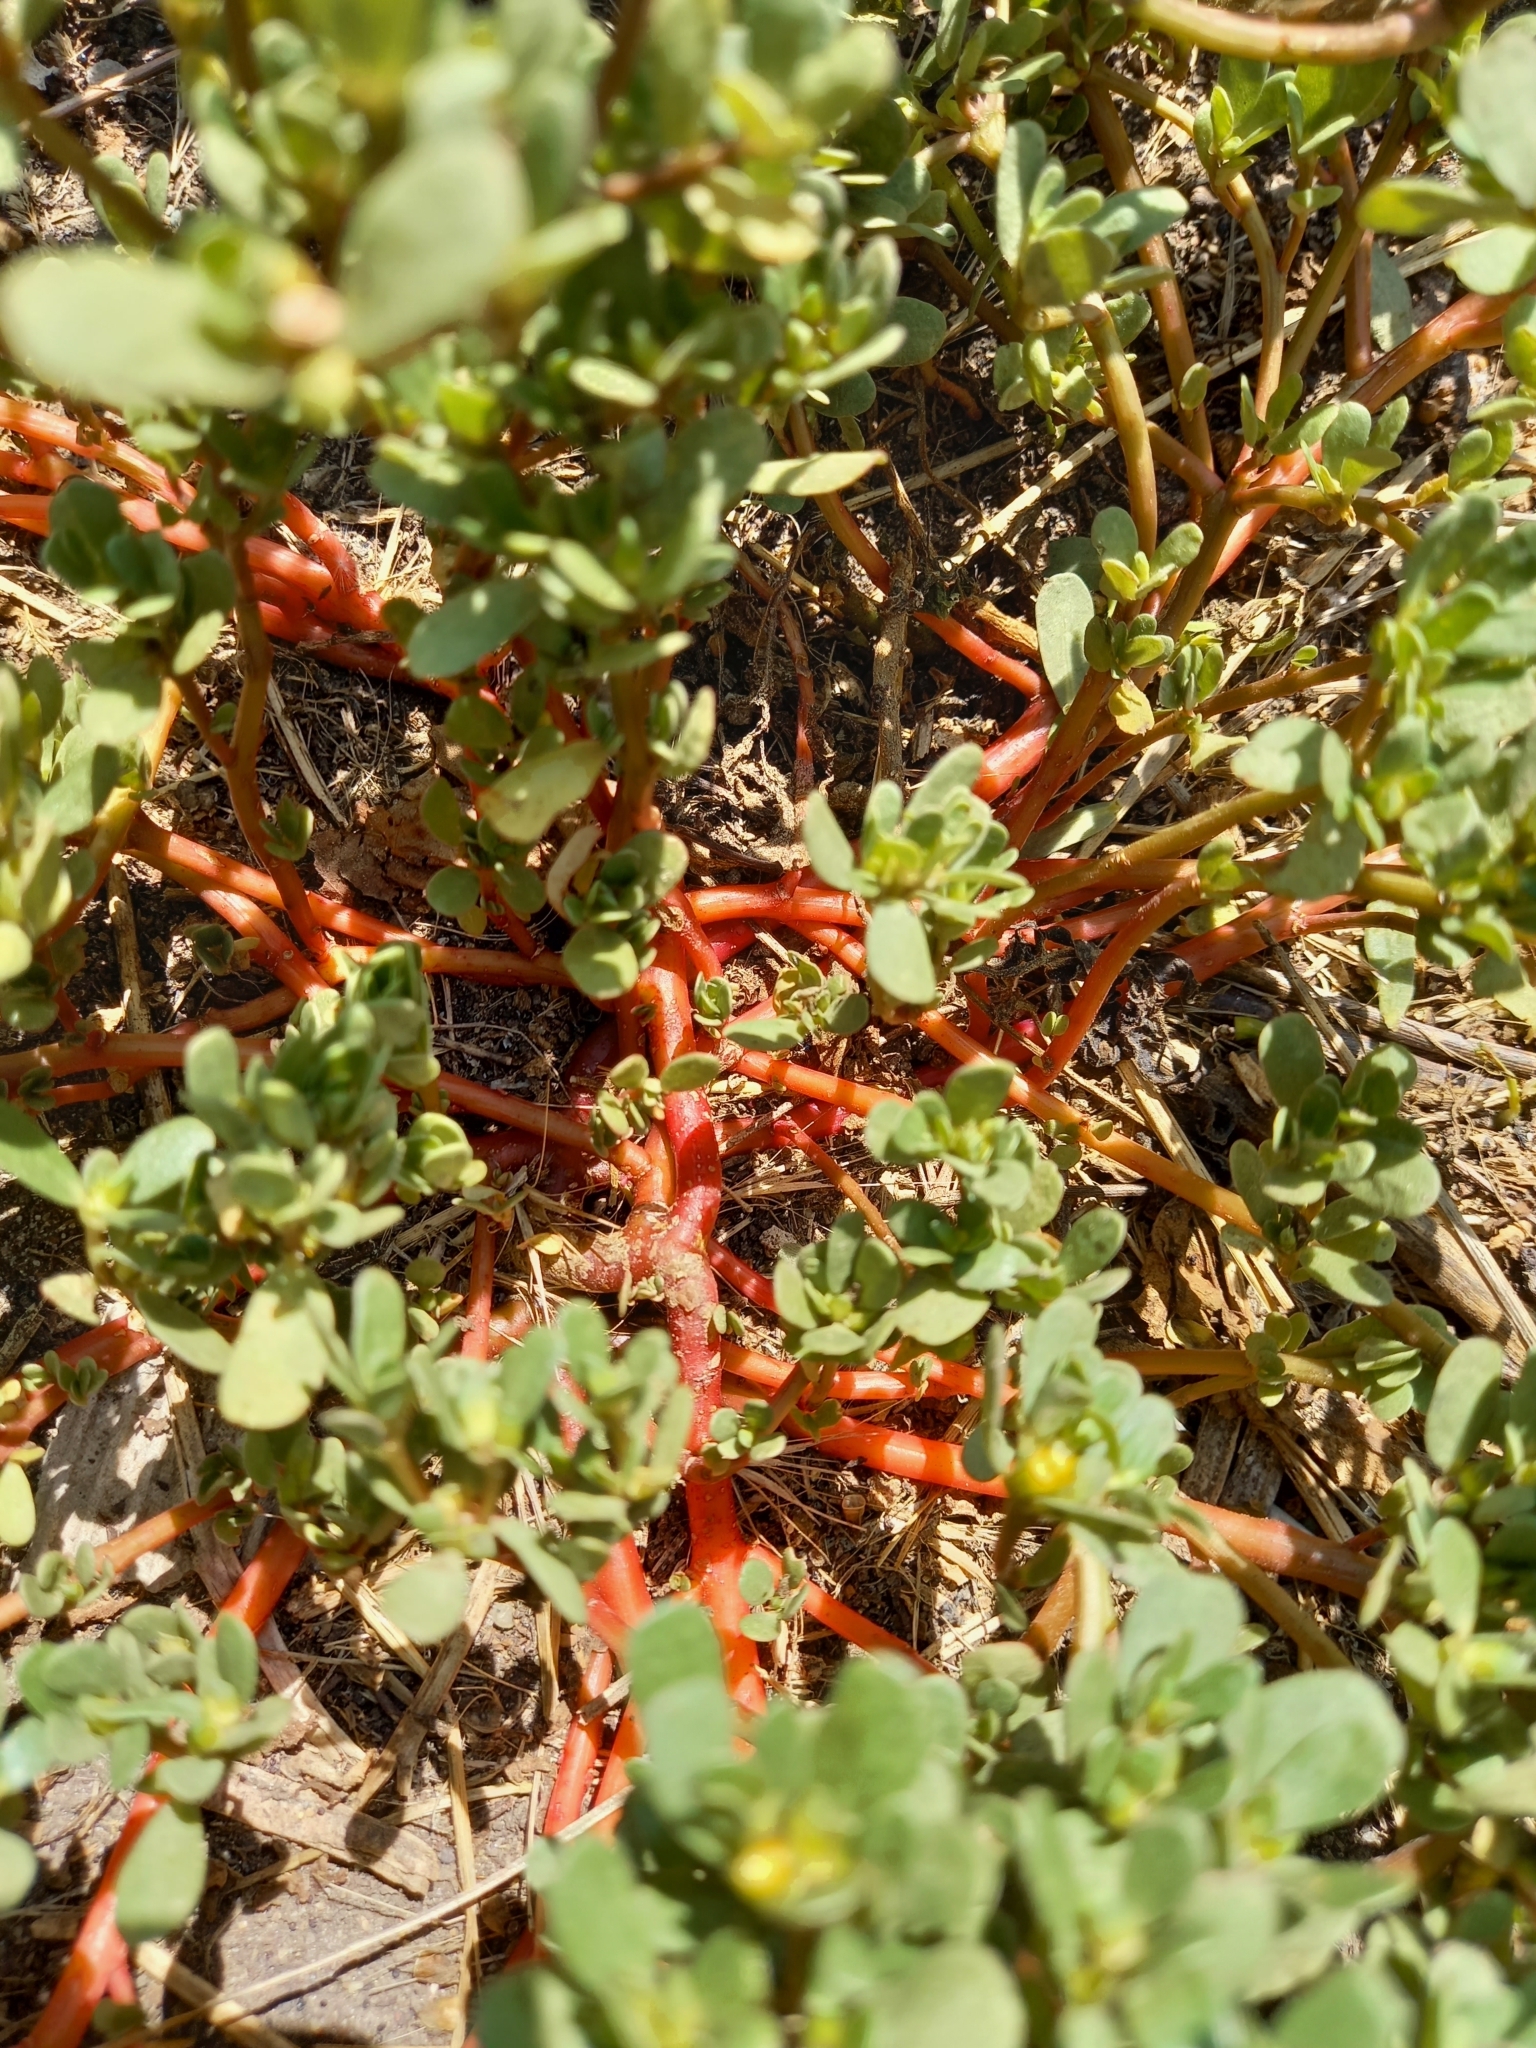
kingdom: Plantae
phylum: Tracheophyta
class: Magnoliopsida
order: Caryophyllales
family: Portulacaceae
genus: Portulaca
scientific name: Portulaca oleracea
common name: Common purslane
